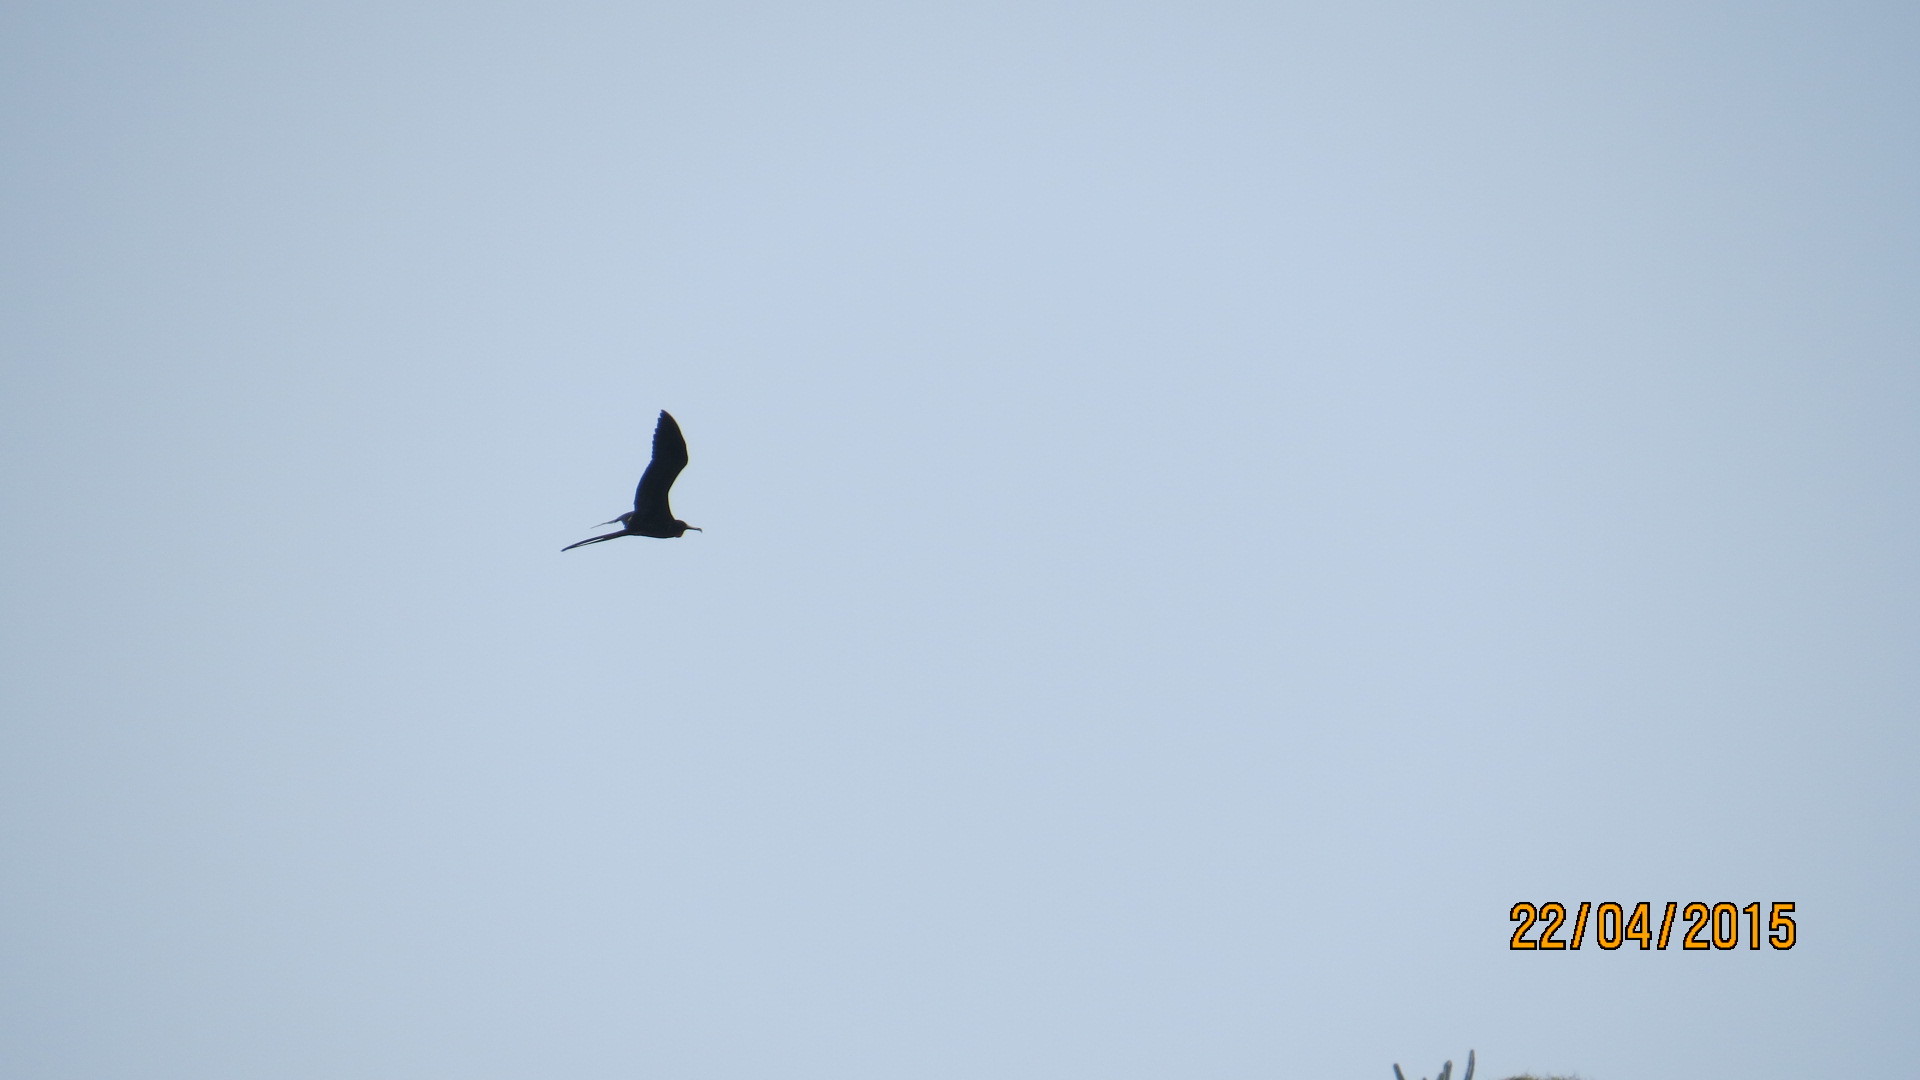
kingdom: Animalia
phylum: Chordata
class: Aves
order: Suliformes
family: Fregatidae
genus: Fregata
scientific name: Fregata magnificens
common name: Magnificent frigatebird
